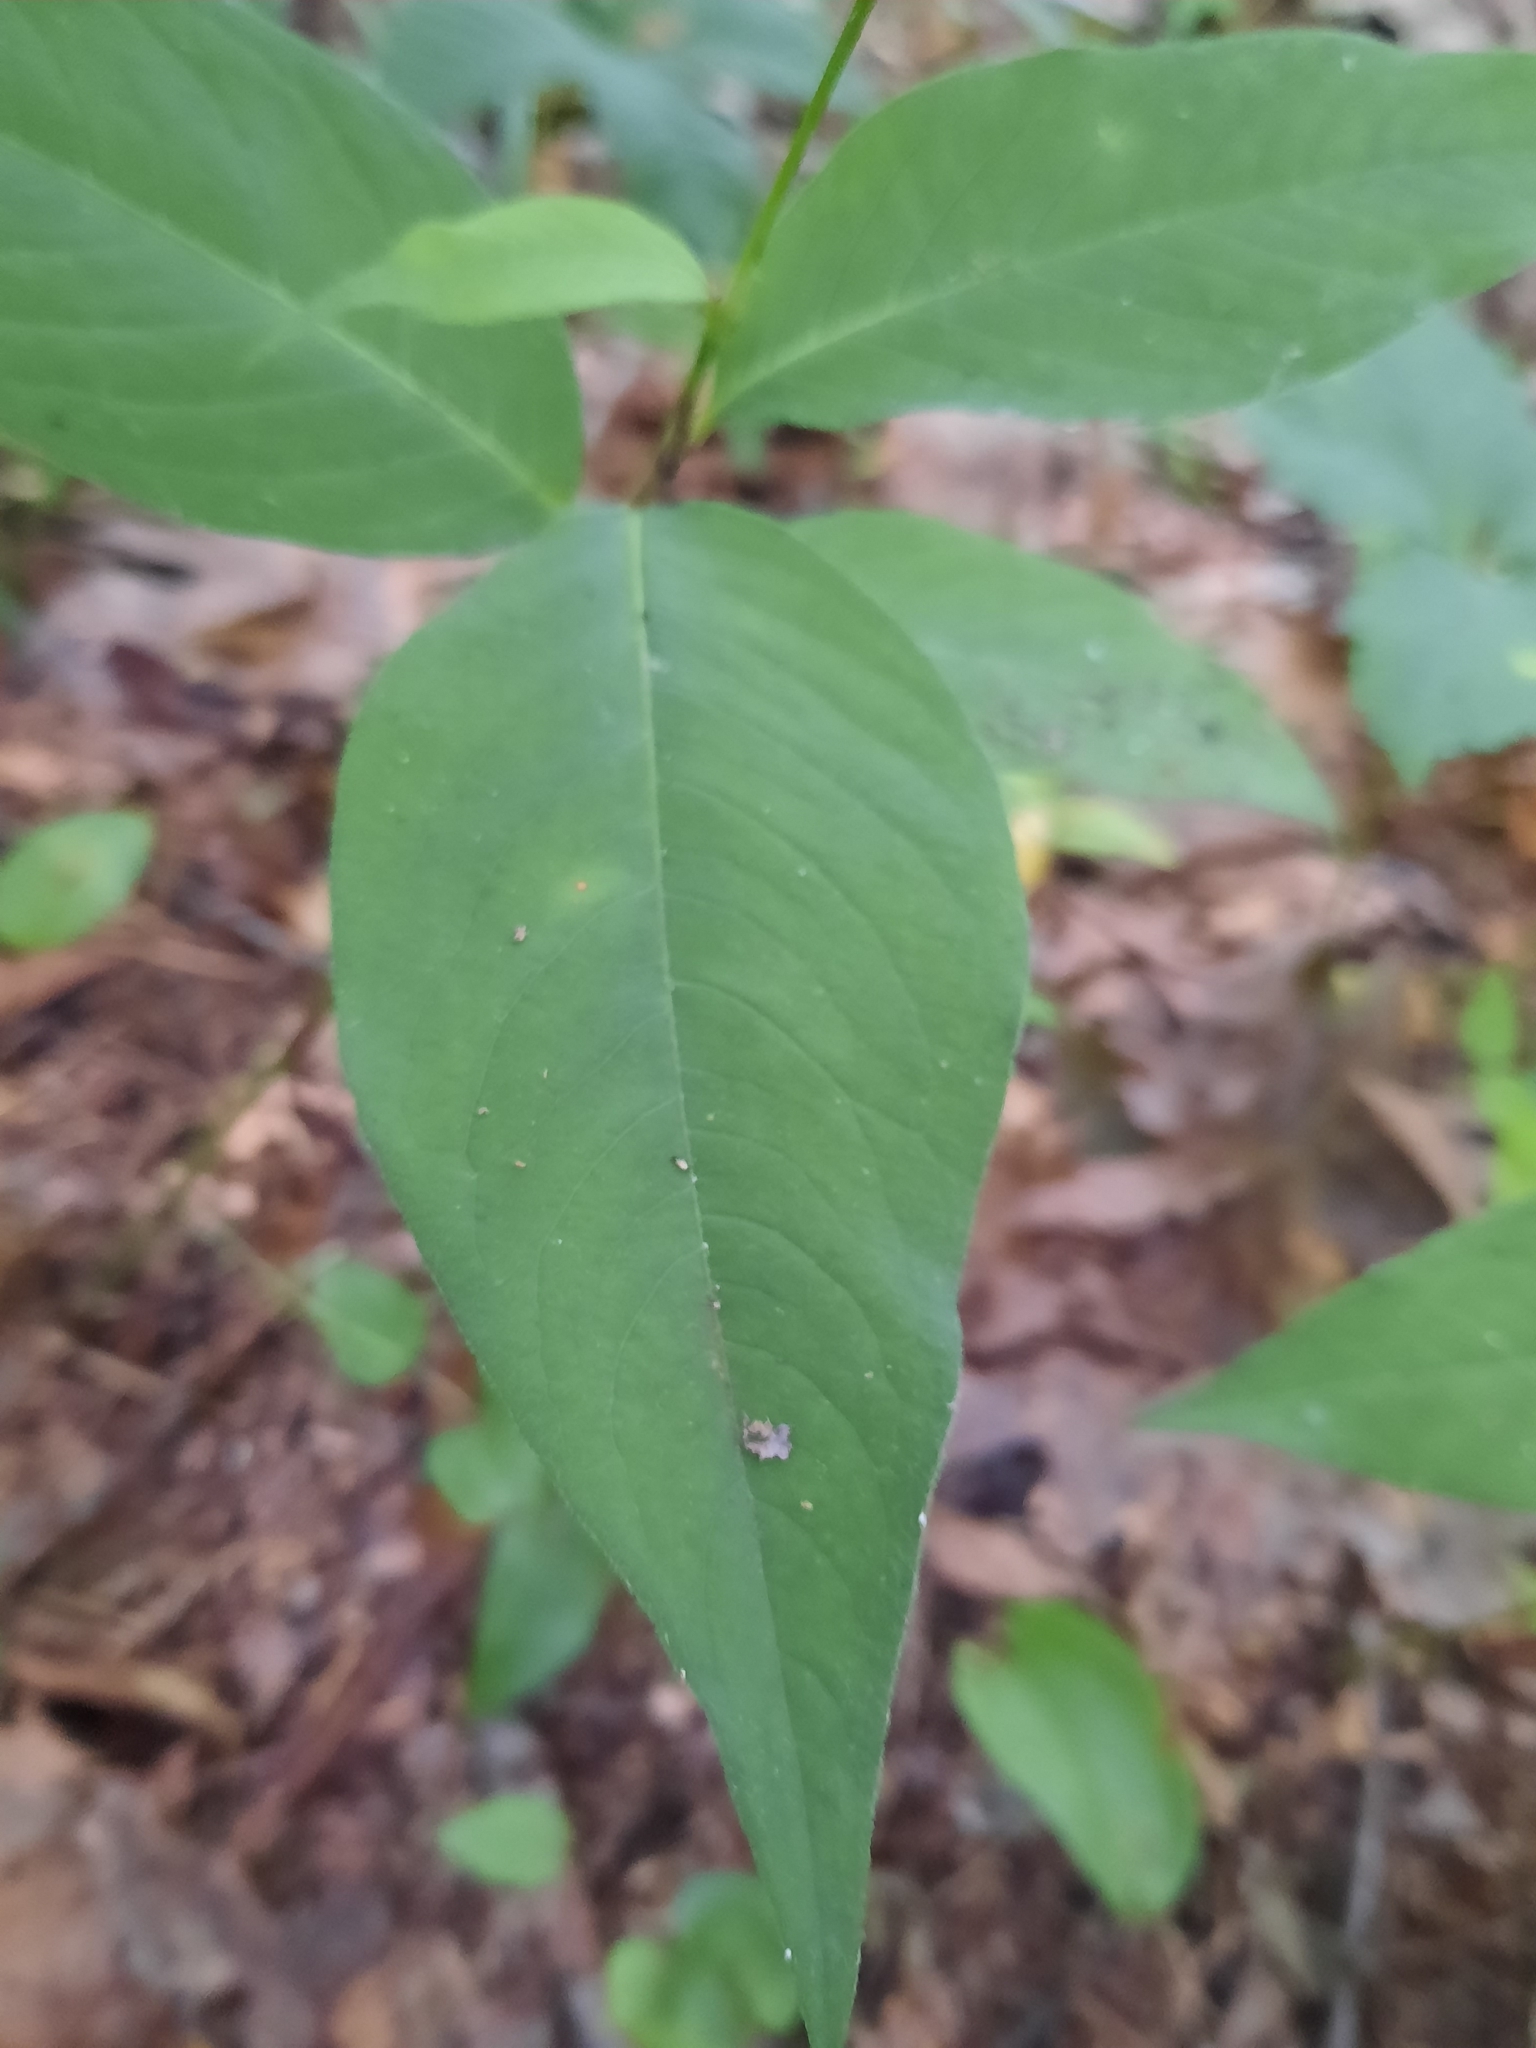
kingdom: Plantae
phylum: Tracheophyta
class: Magnoliopsida
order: Caryophyllales
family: Polygonaceae
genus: Persicaria
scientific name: Persicaria virginiana
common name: Jumpseed
